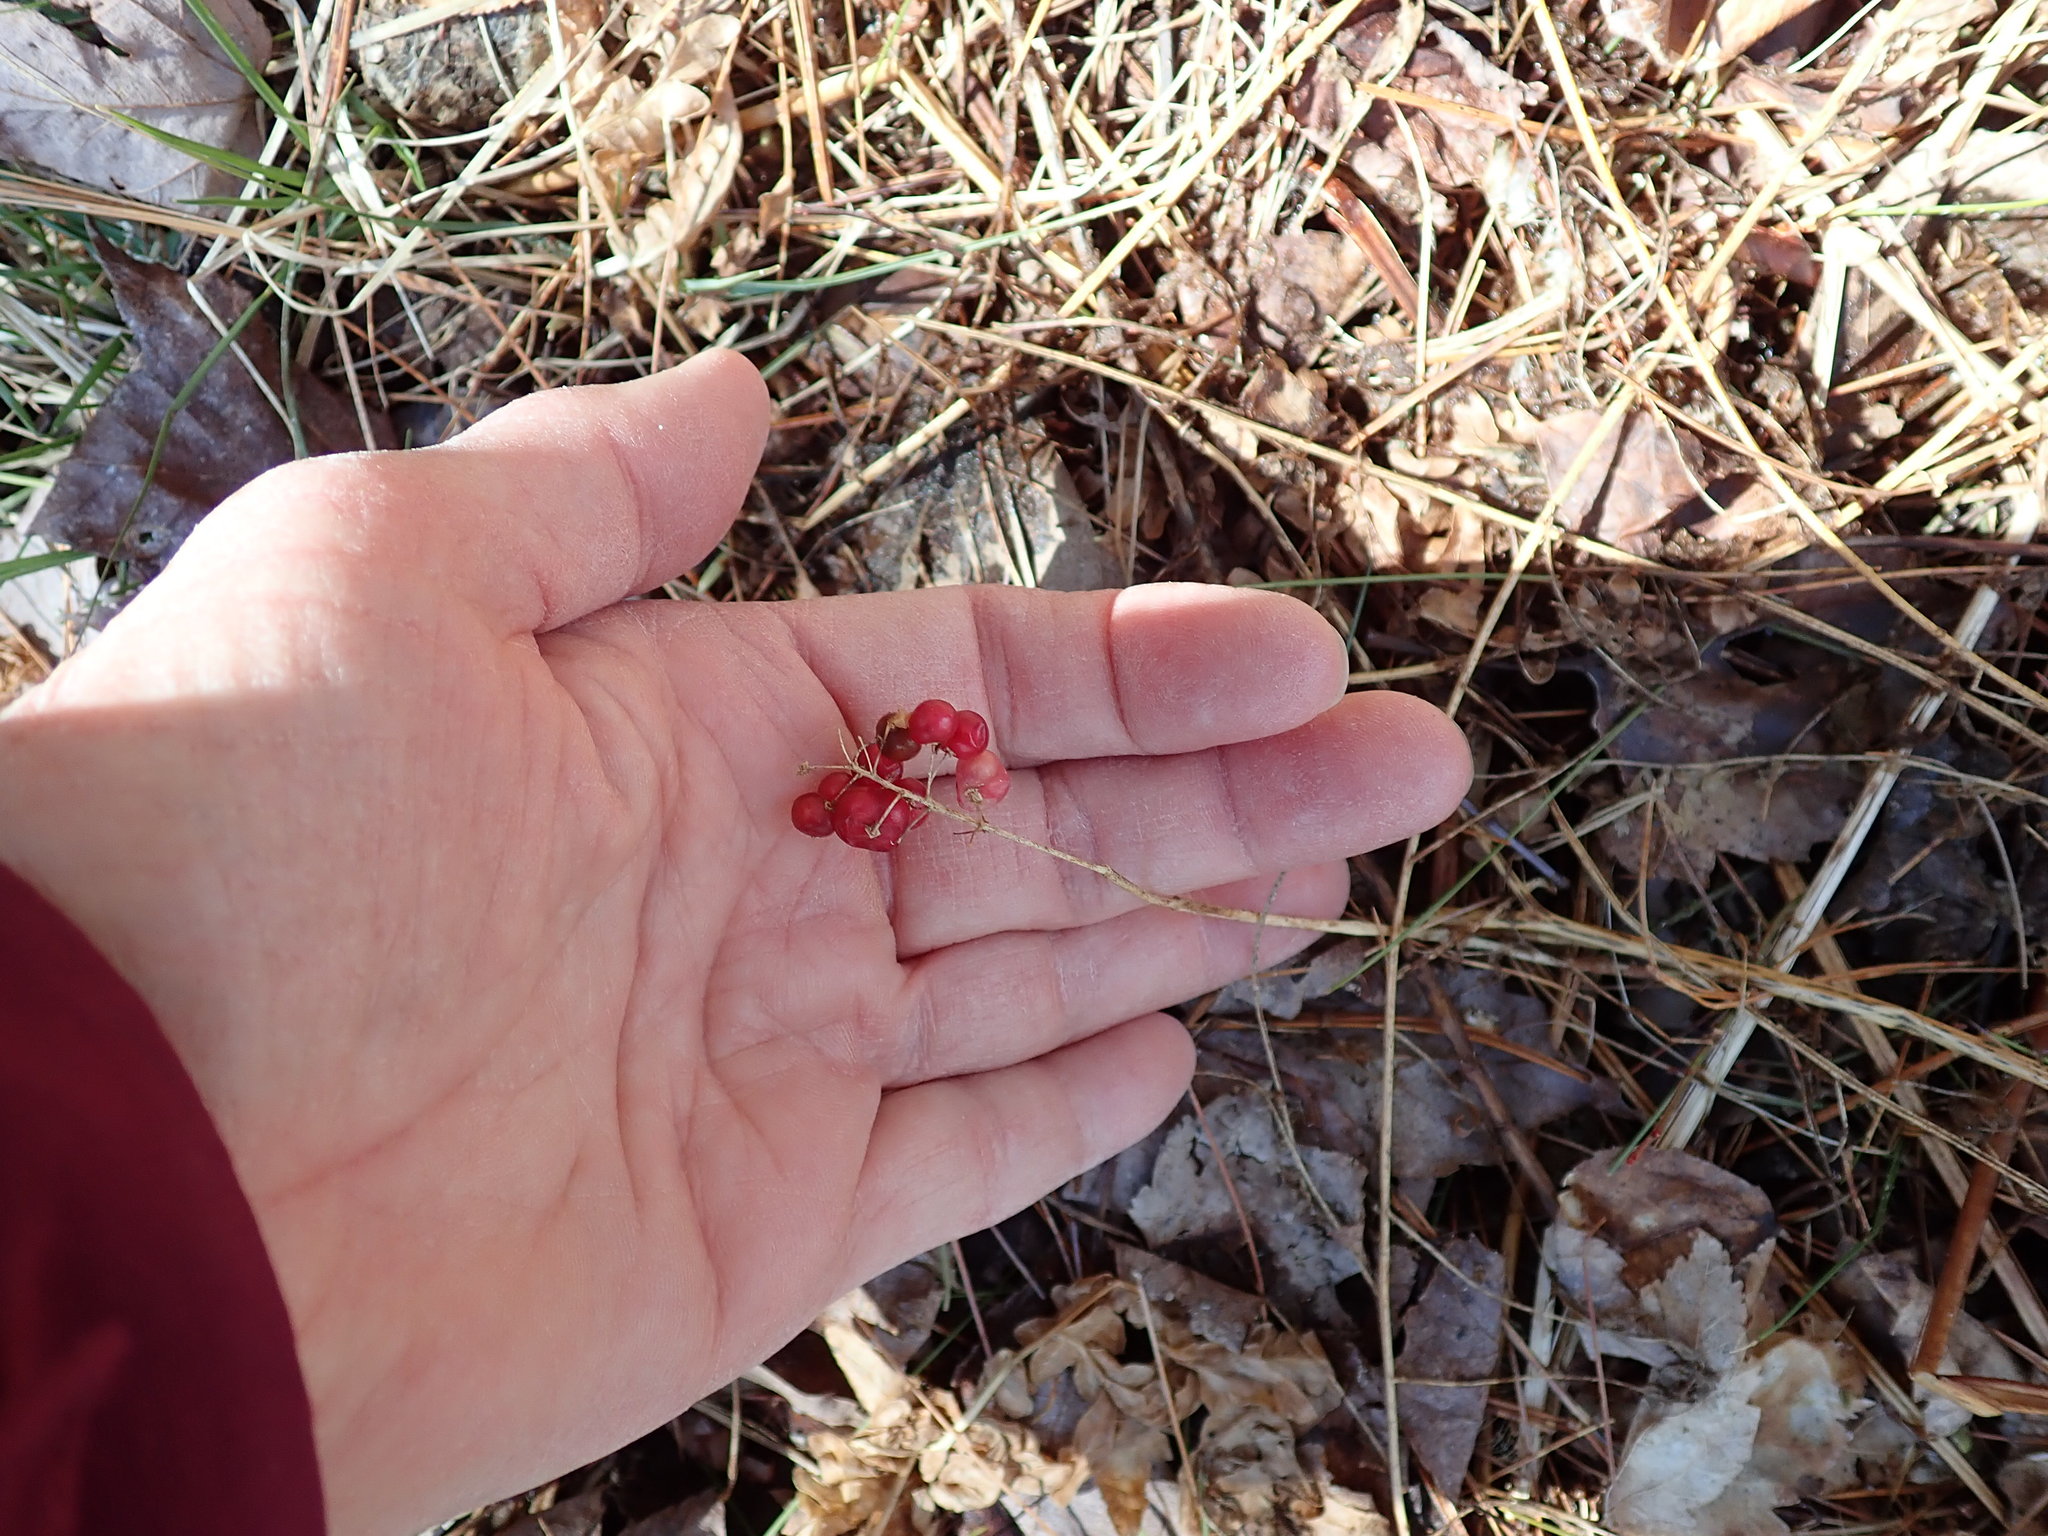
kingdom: Plantae
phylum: Tracheophyta
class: Liliopsida
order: Asparagales
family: Asparagaceae
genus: Maianthemum
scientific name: Maianthemum canadense
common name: False lily-of-the-valley
